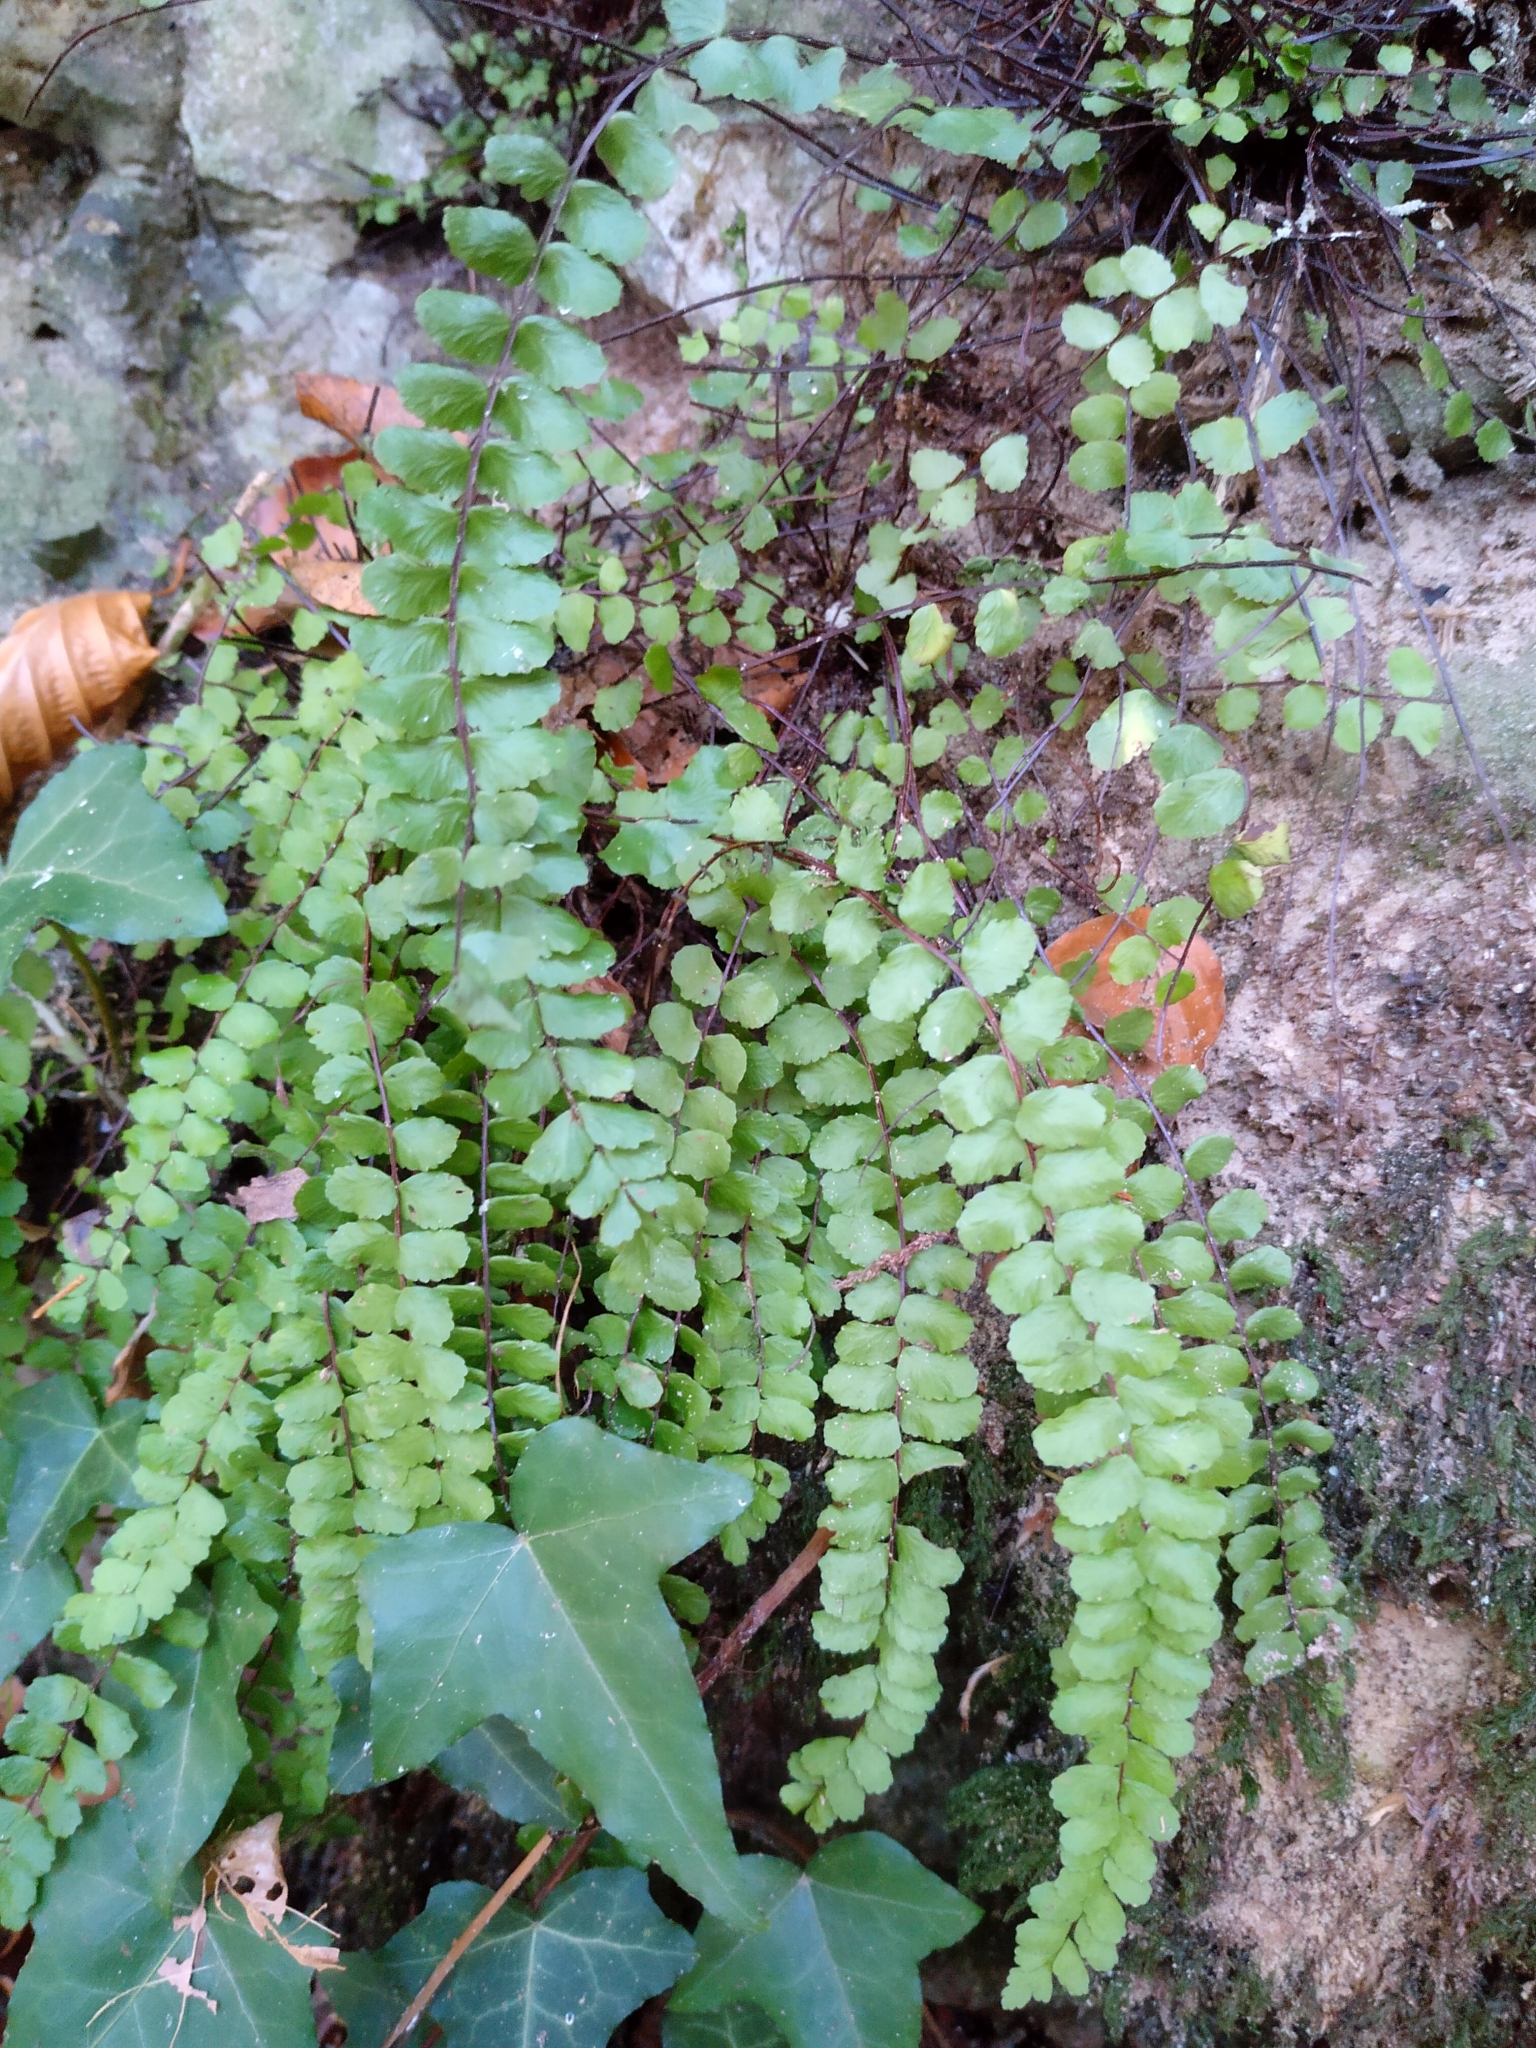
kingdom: Plantae
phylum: Tracheophyta
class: Polypodiopsida
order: Polypodiales
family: Aspleniaceae
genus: Asplenium
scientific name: Asplenium trichomanes
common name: Maidenhair spleenwort
